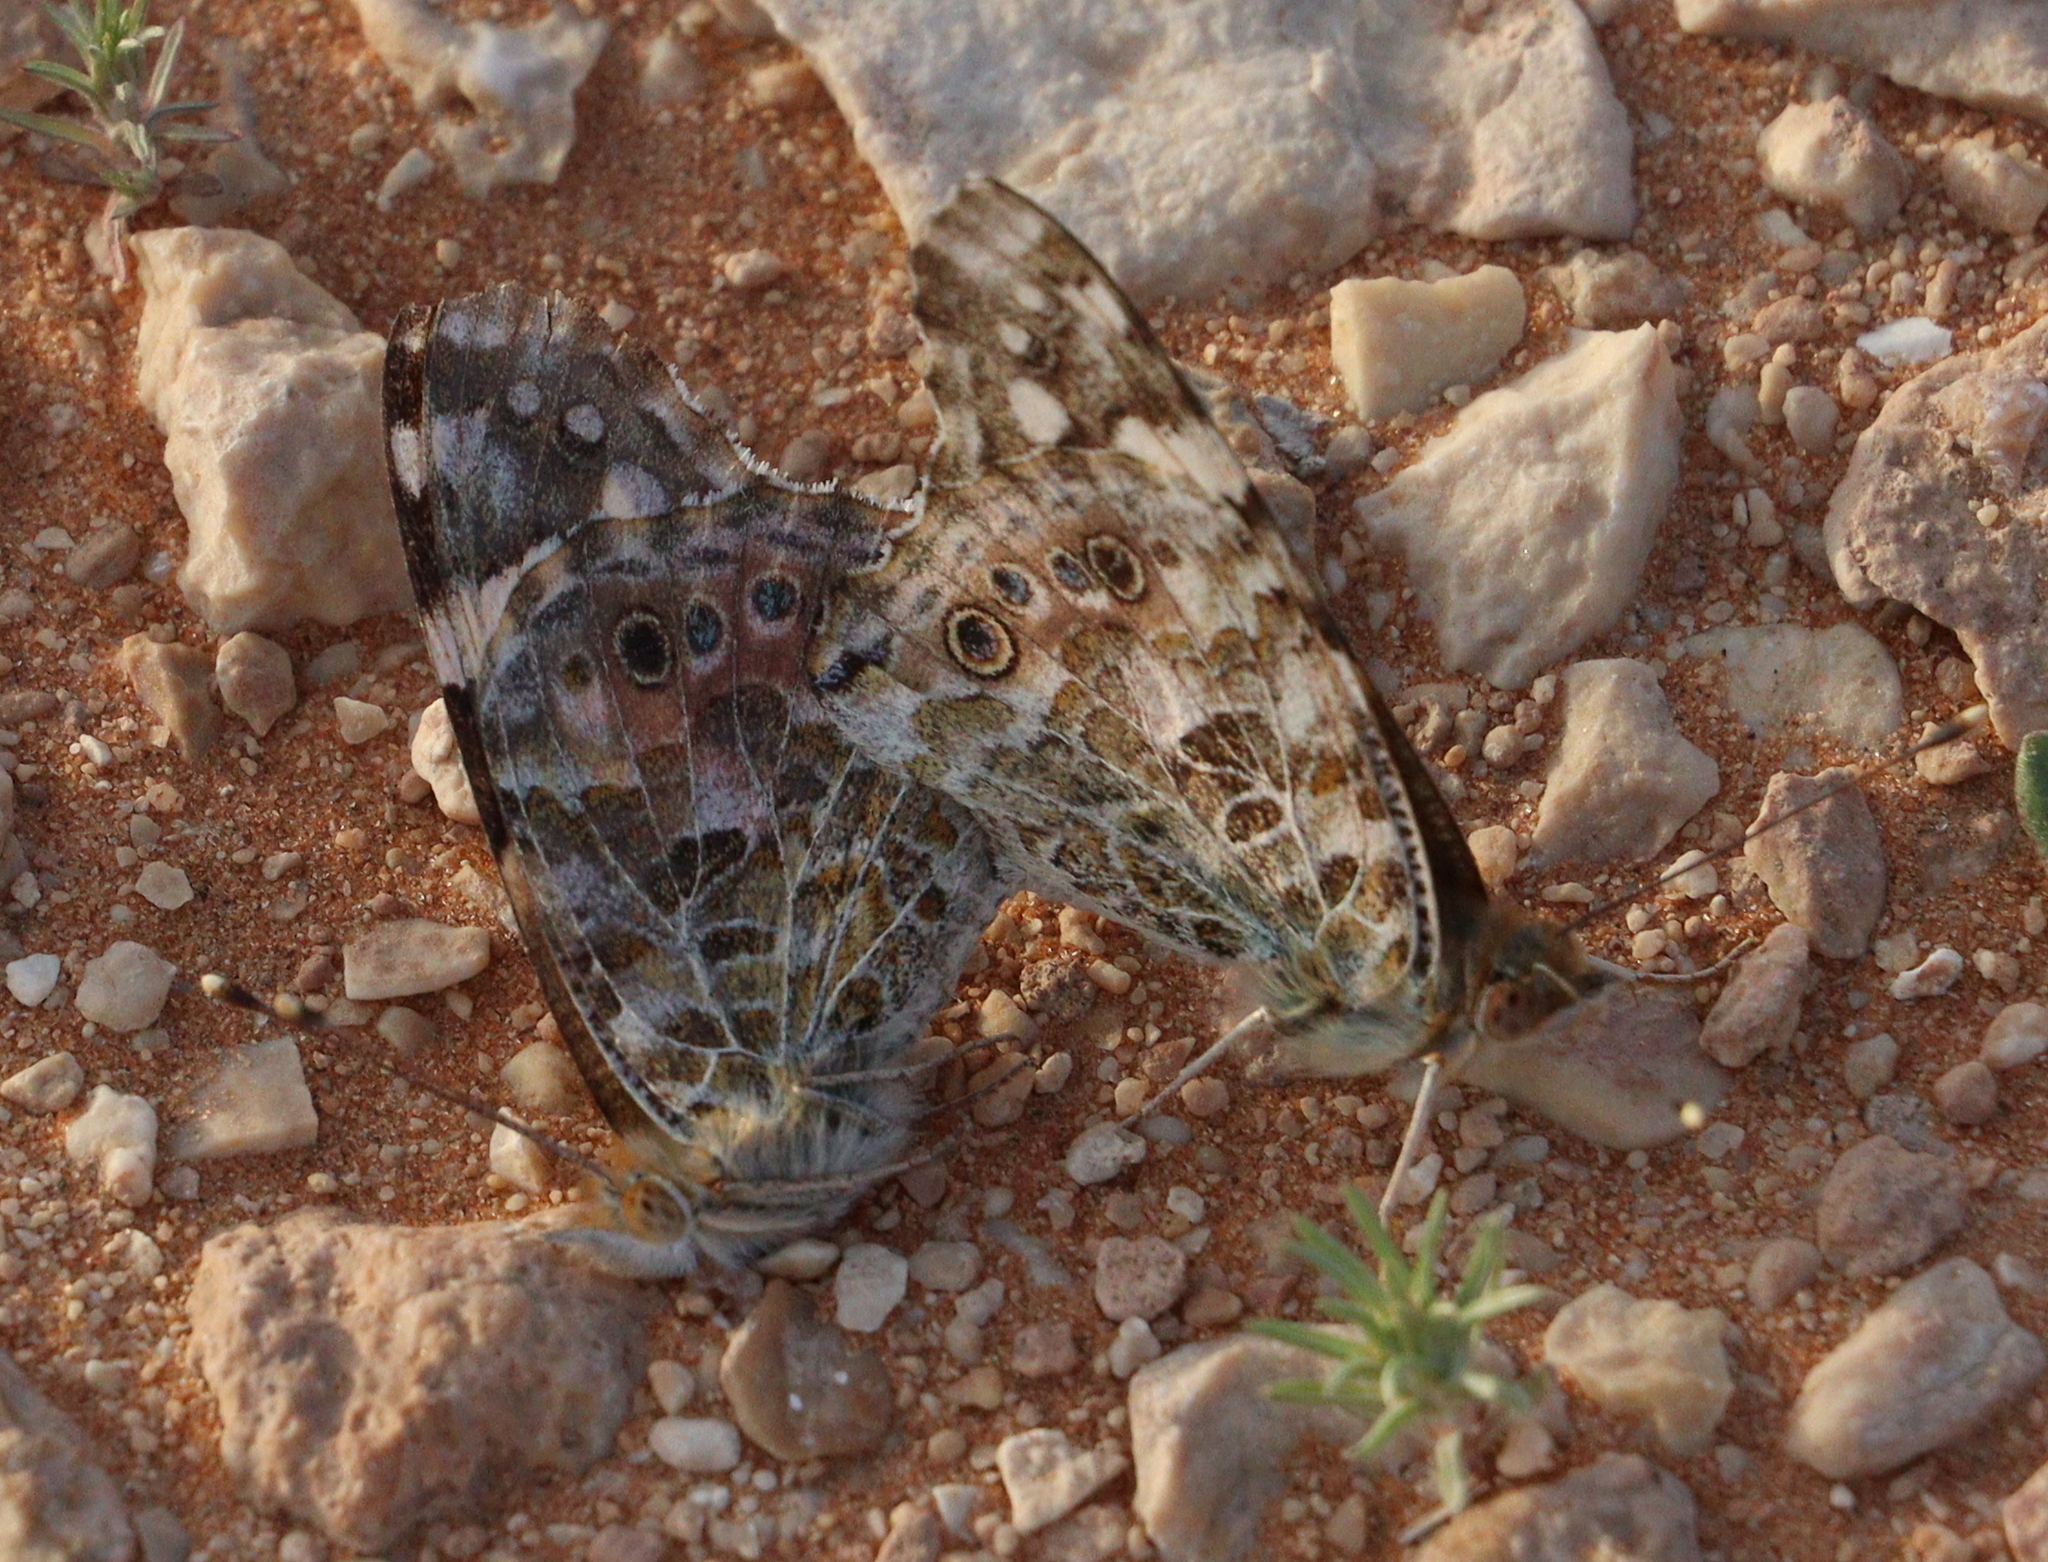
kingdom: Animalia
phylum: Arthropoda
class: Insecta
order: Lepidoptera
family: Nymphalidae
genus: Vanessa
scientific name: Vanessa cardui
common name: Painted lady
